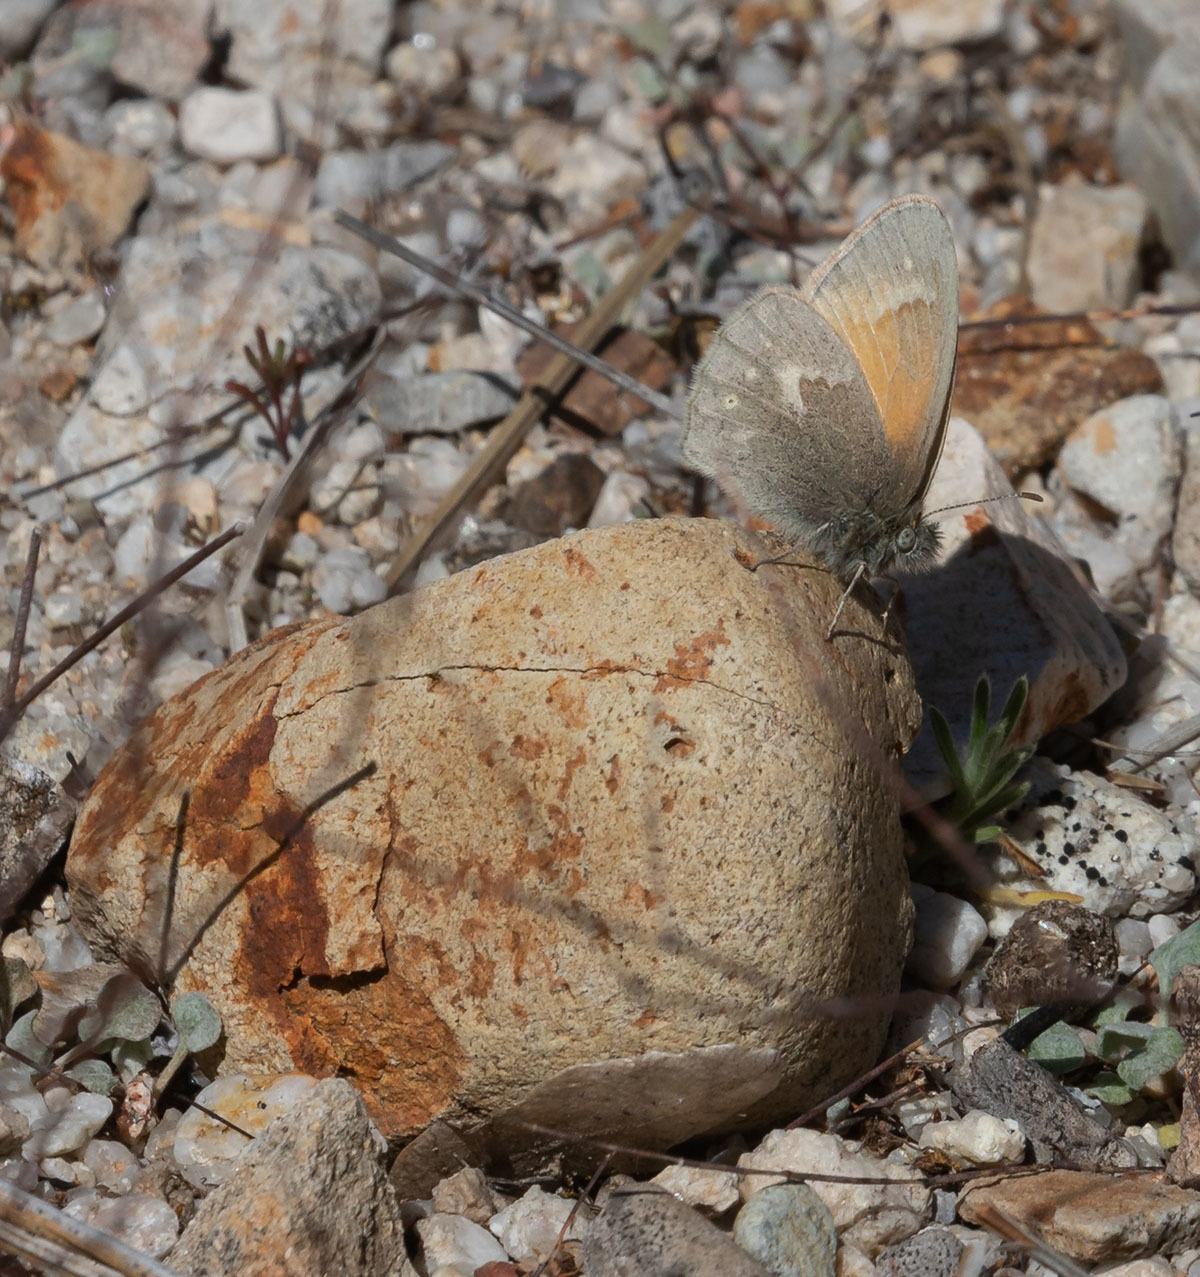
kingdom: Animalia
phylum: Arthropoda
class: Insecta
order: Lepidoptera
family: Nymphalidae
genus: Coenonympha
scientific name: Coenonympha california
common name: Common ringlet
